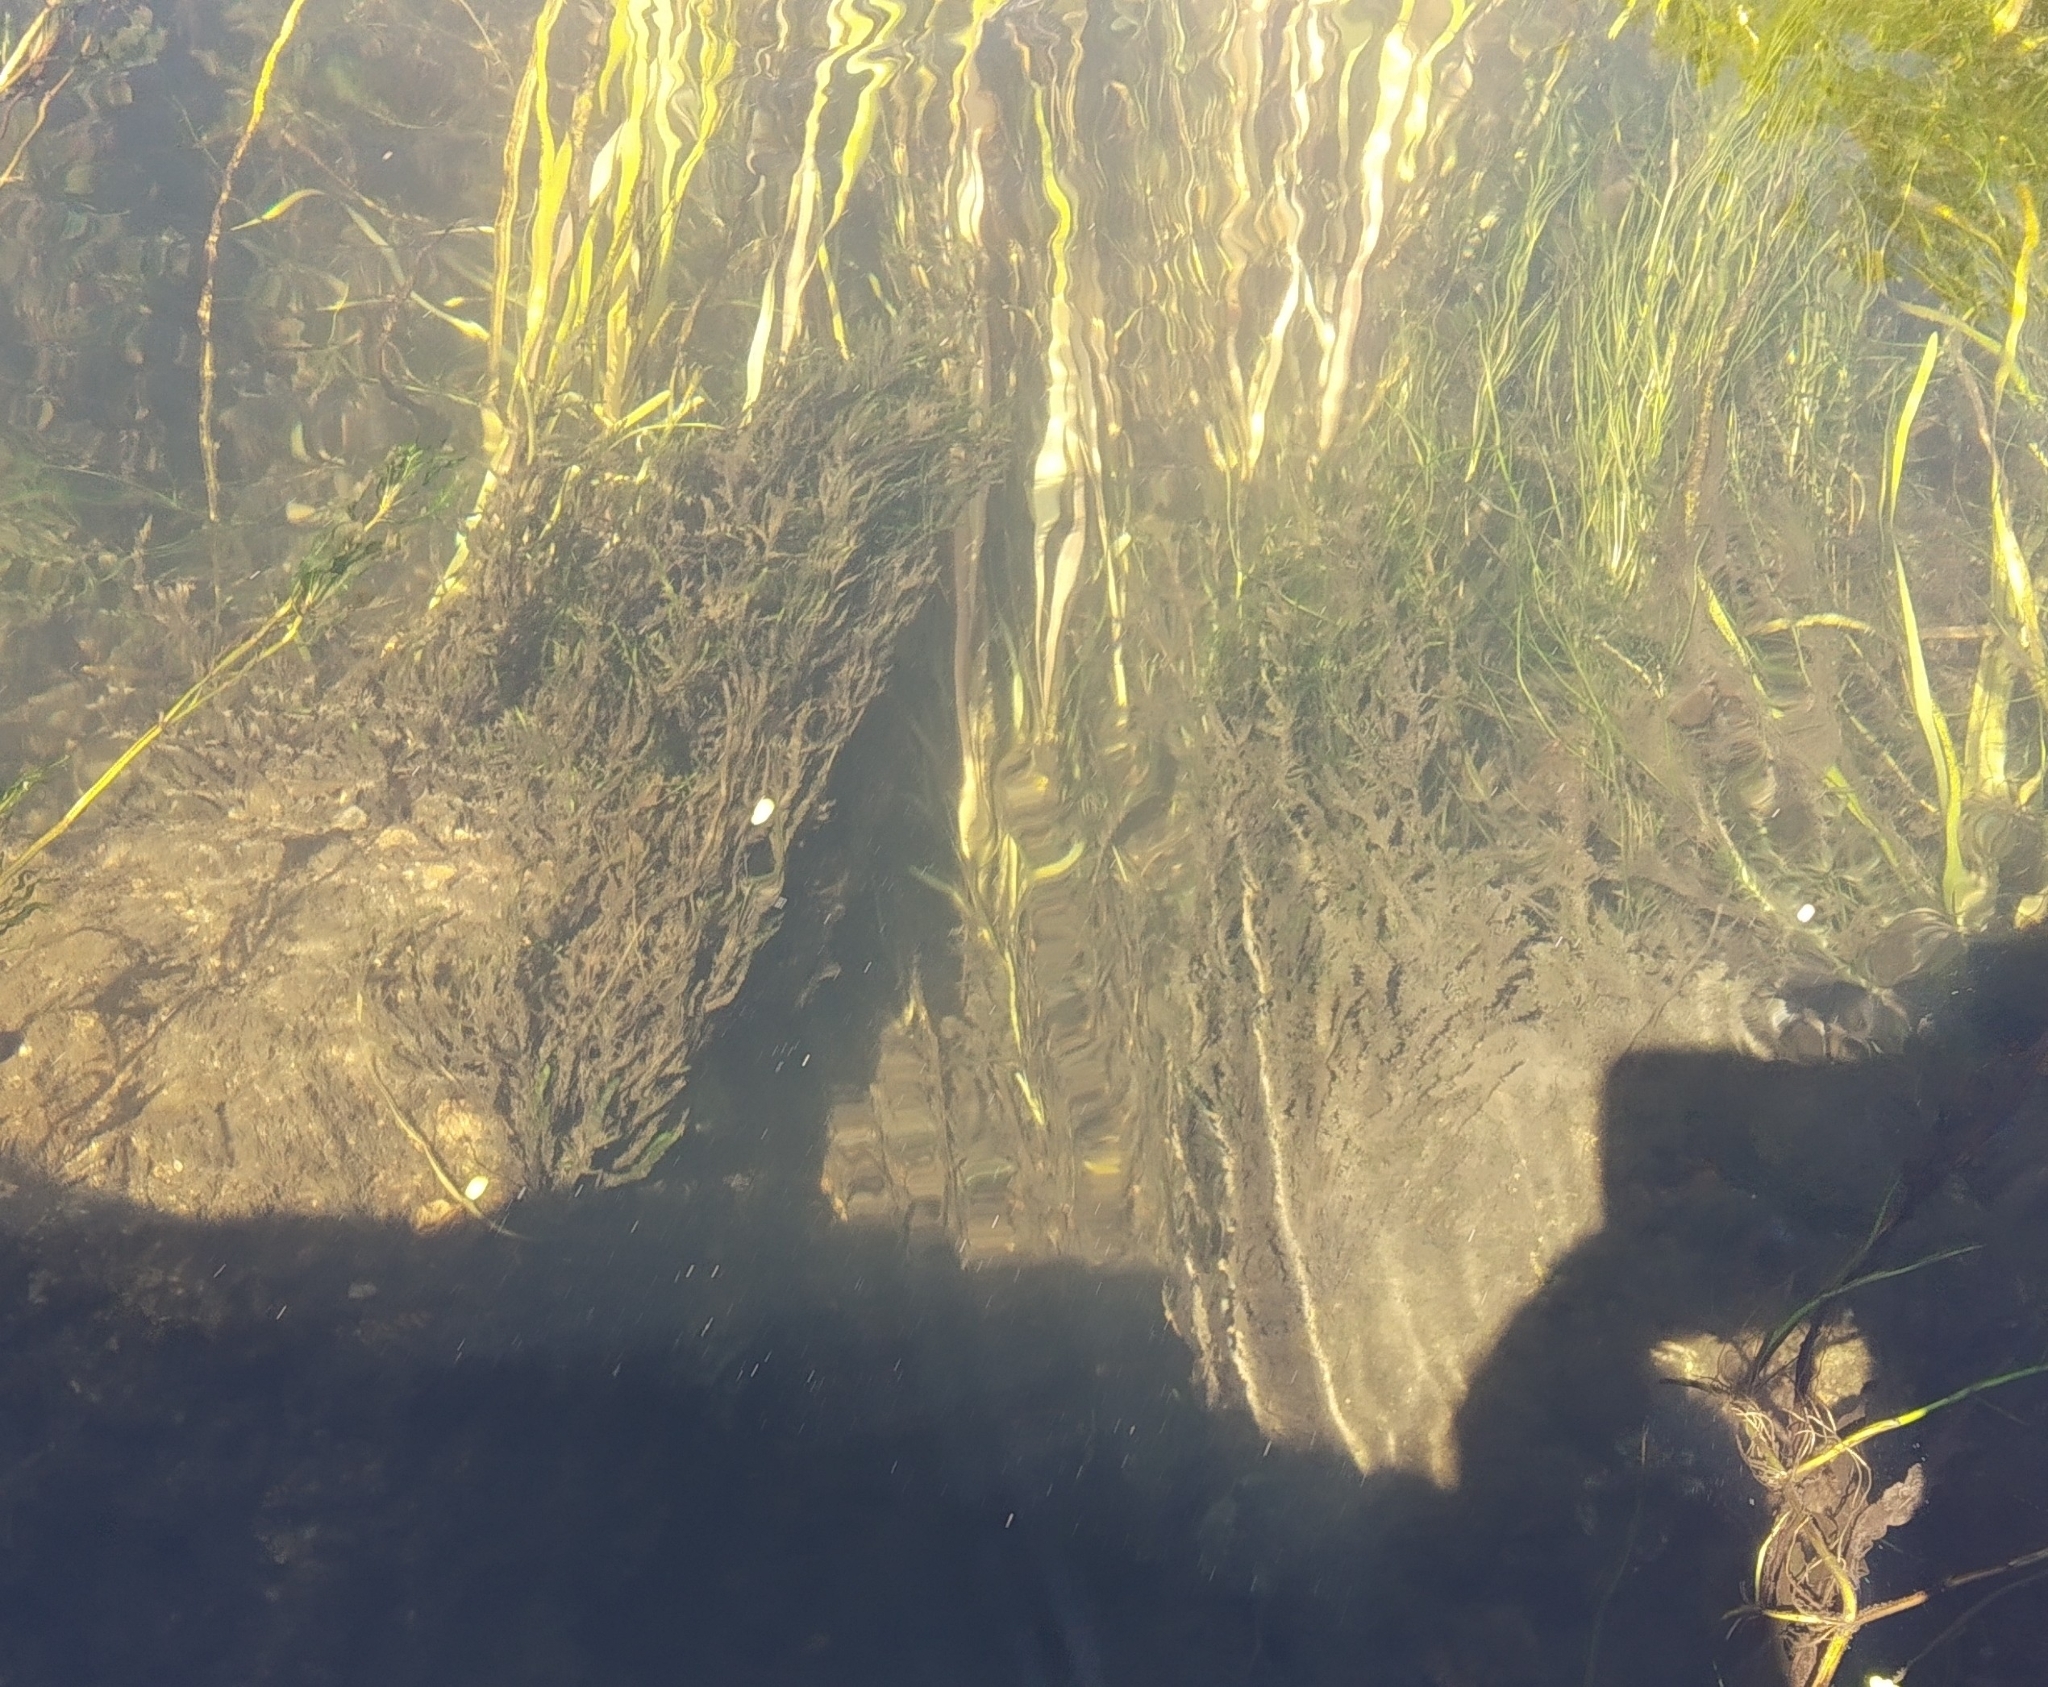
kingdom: Plantae
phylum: Bryophyta
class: Bryopsida
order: Hypnales
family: Fontinalaceae
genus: Fontinalis
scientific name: Fontinalis antipyretica
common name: Greater water-moss
